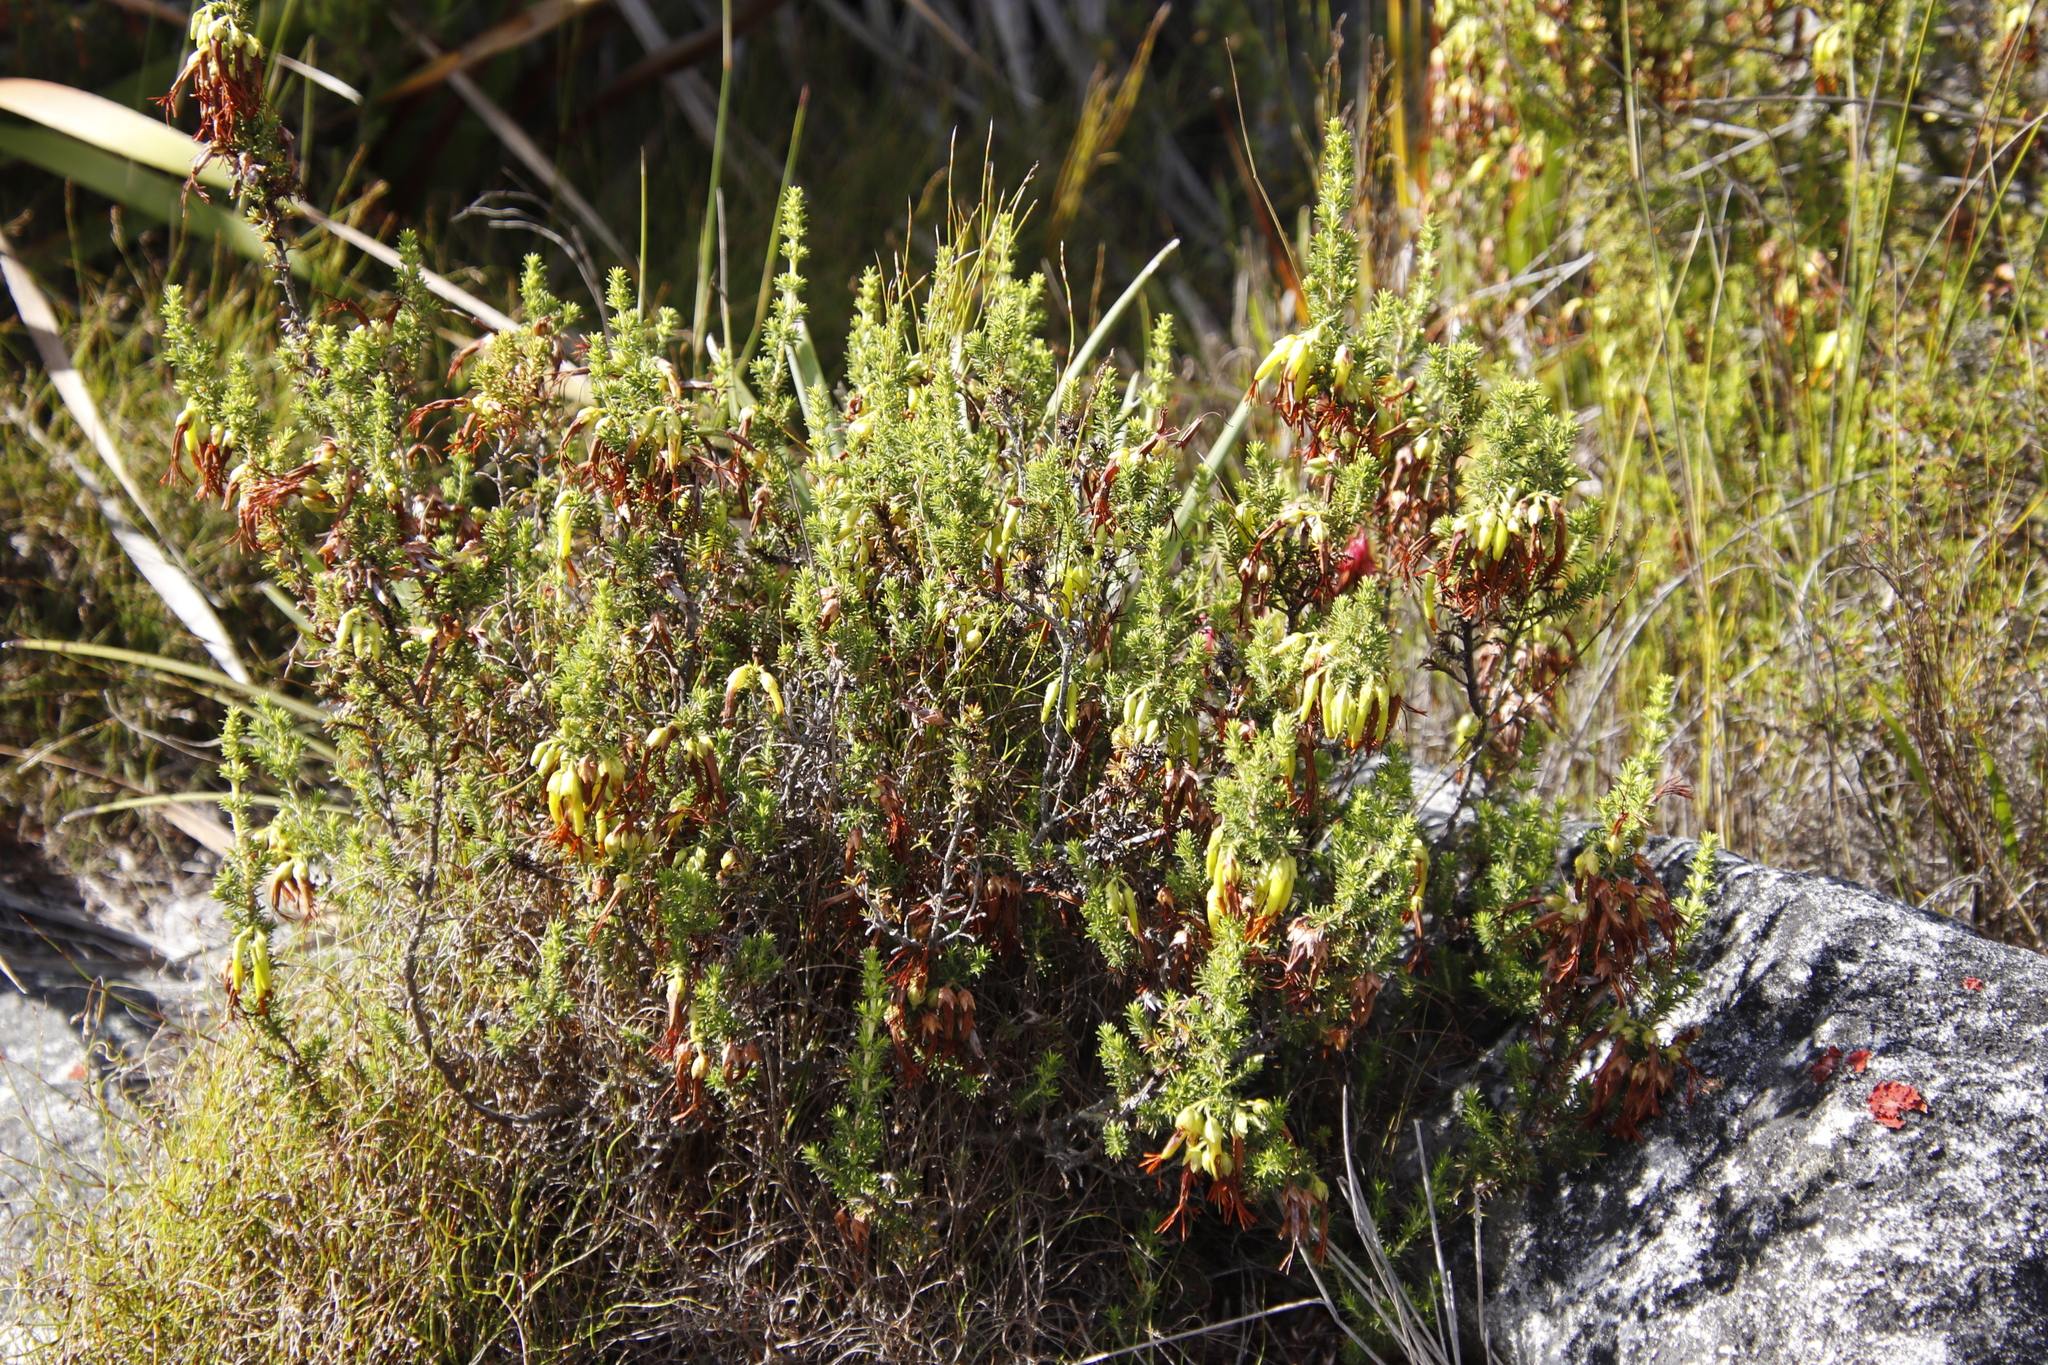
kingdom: Plantae
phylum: Tracheophyta
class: Magnoliopsida
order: Ericales
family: Ericaceae
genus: Erica
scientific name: Erica coccinea
